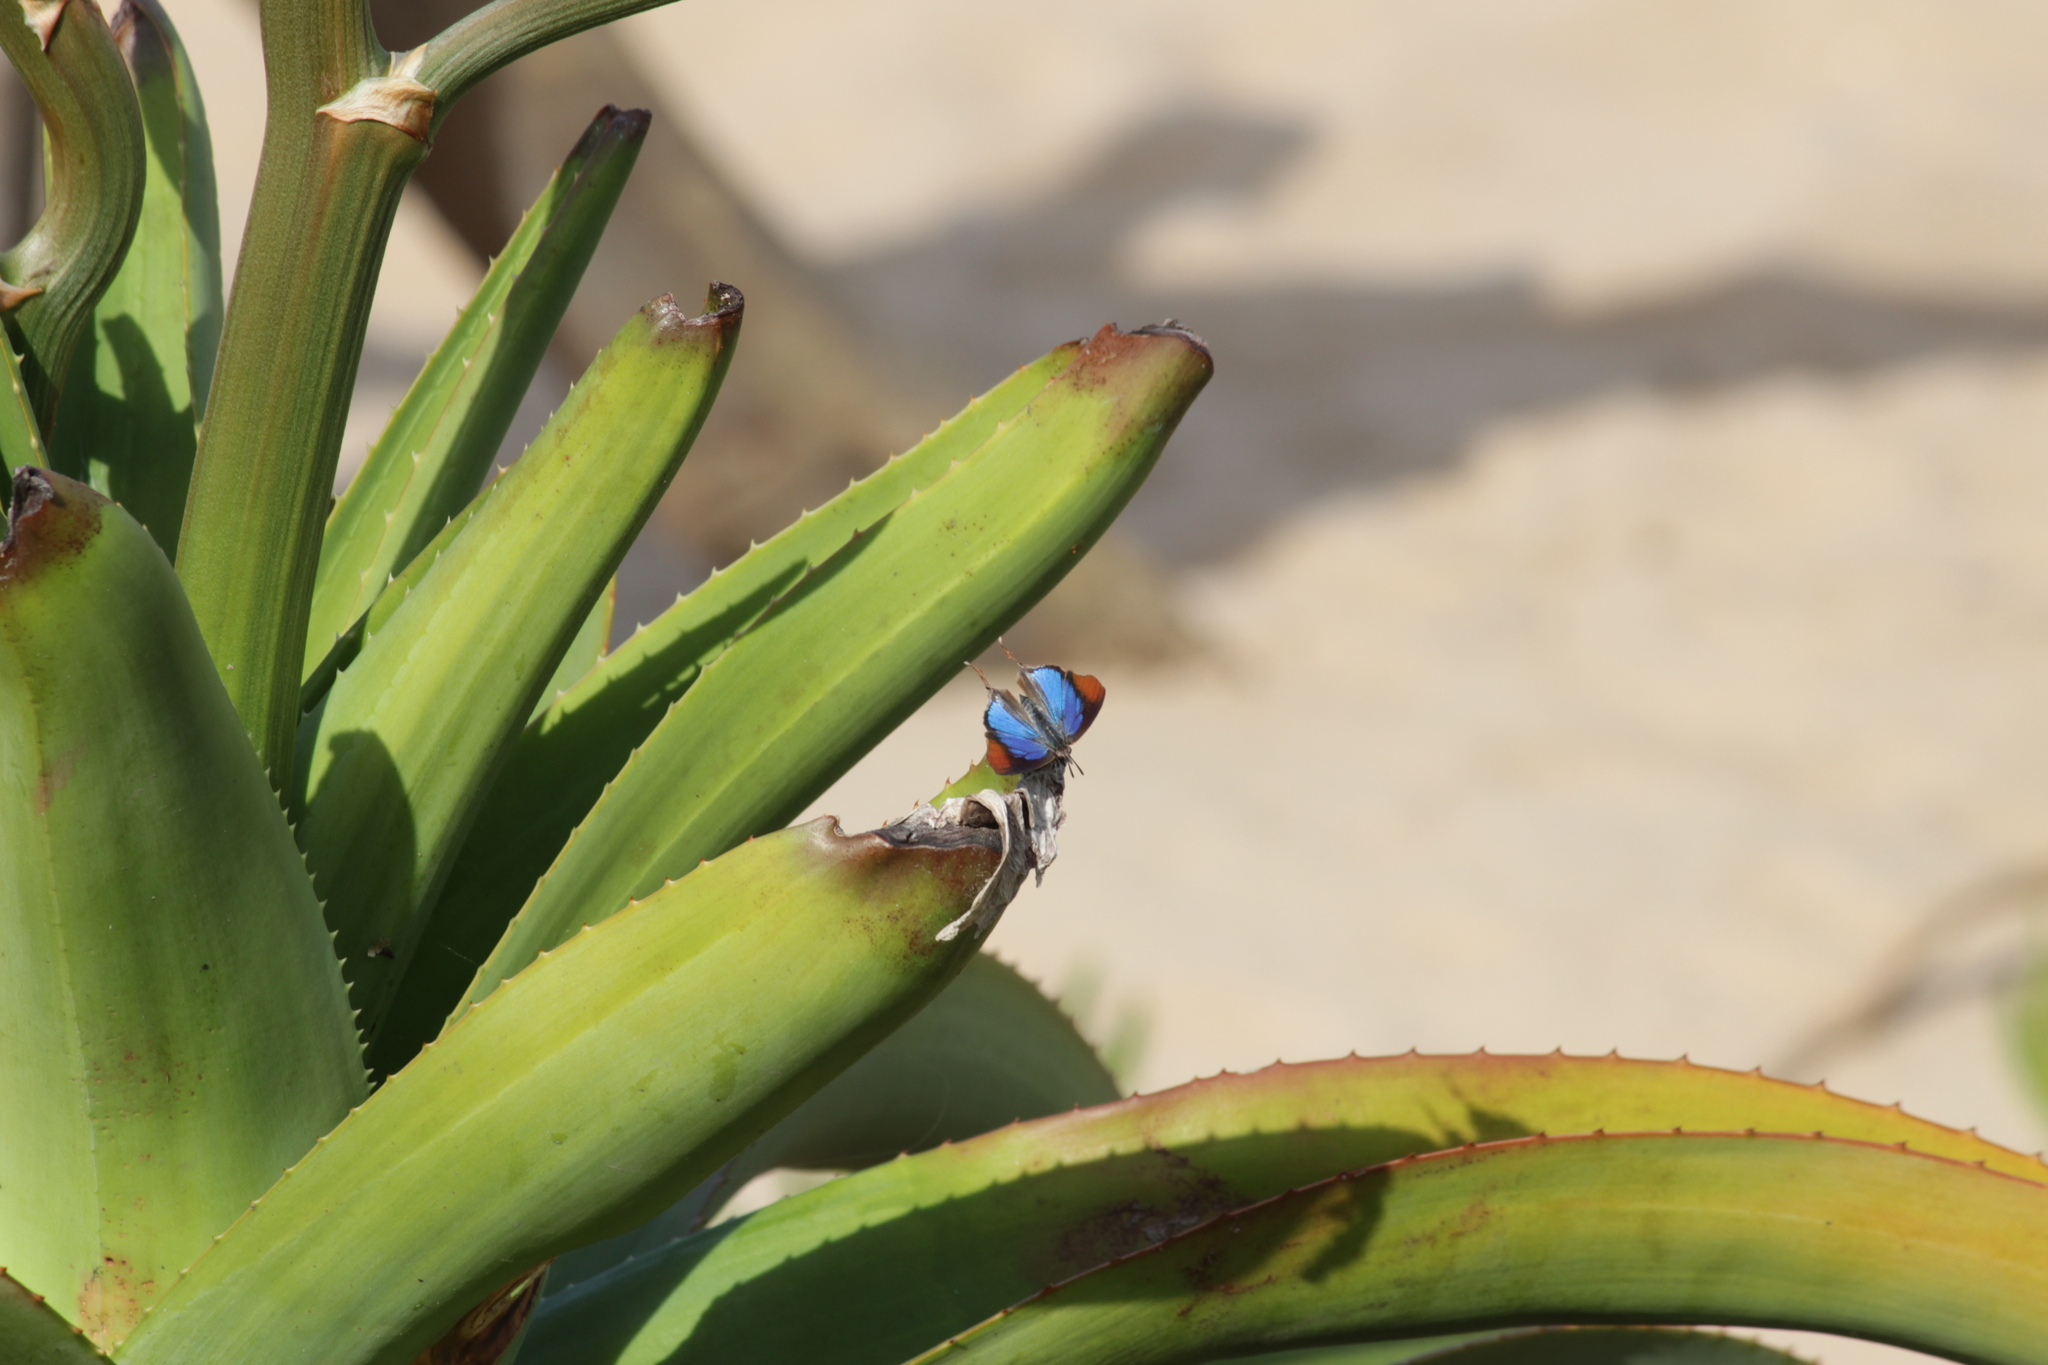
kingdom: Animalia
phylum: Arthropoda
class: Insecta
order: Lepidoptera
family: Lycaenidae
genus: Myrina
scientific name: Myrina silenus
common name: Amber fig-tree blue
